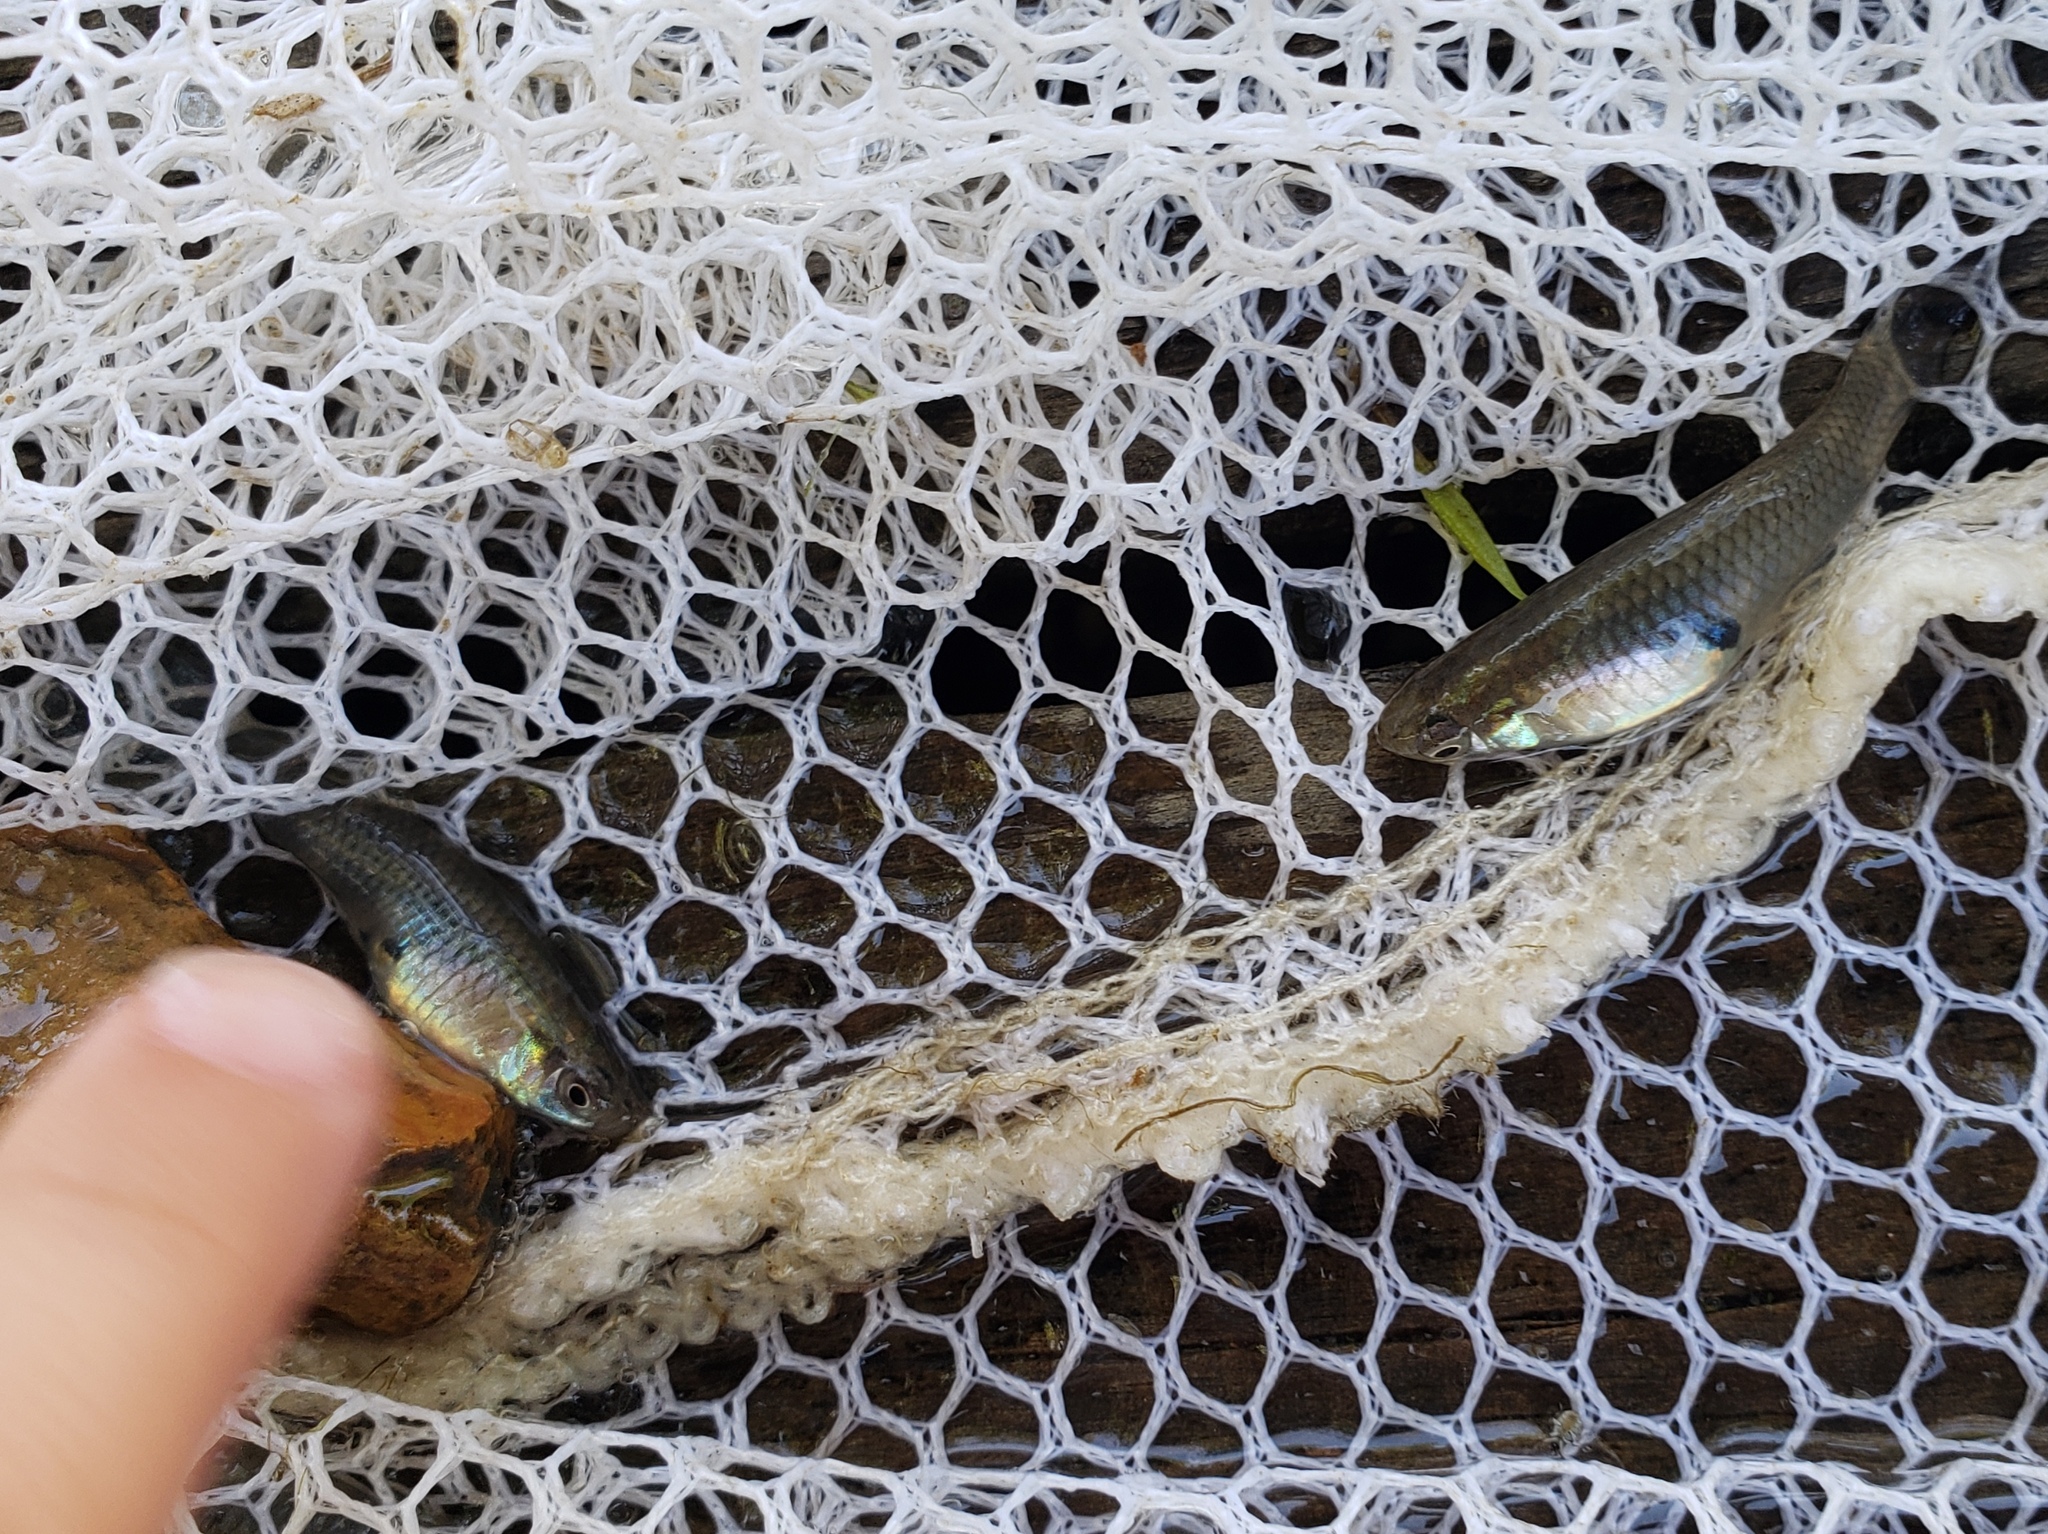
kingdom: Animalia
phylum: Chordata
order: Cyprinodontiformes
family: Poeciliidae
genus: Gambusia
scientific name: Gambusia affinis
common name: Mosquitofish
